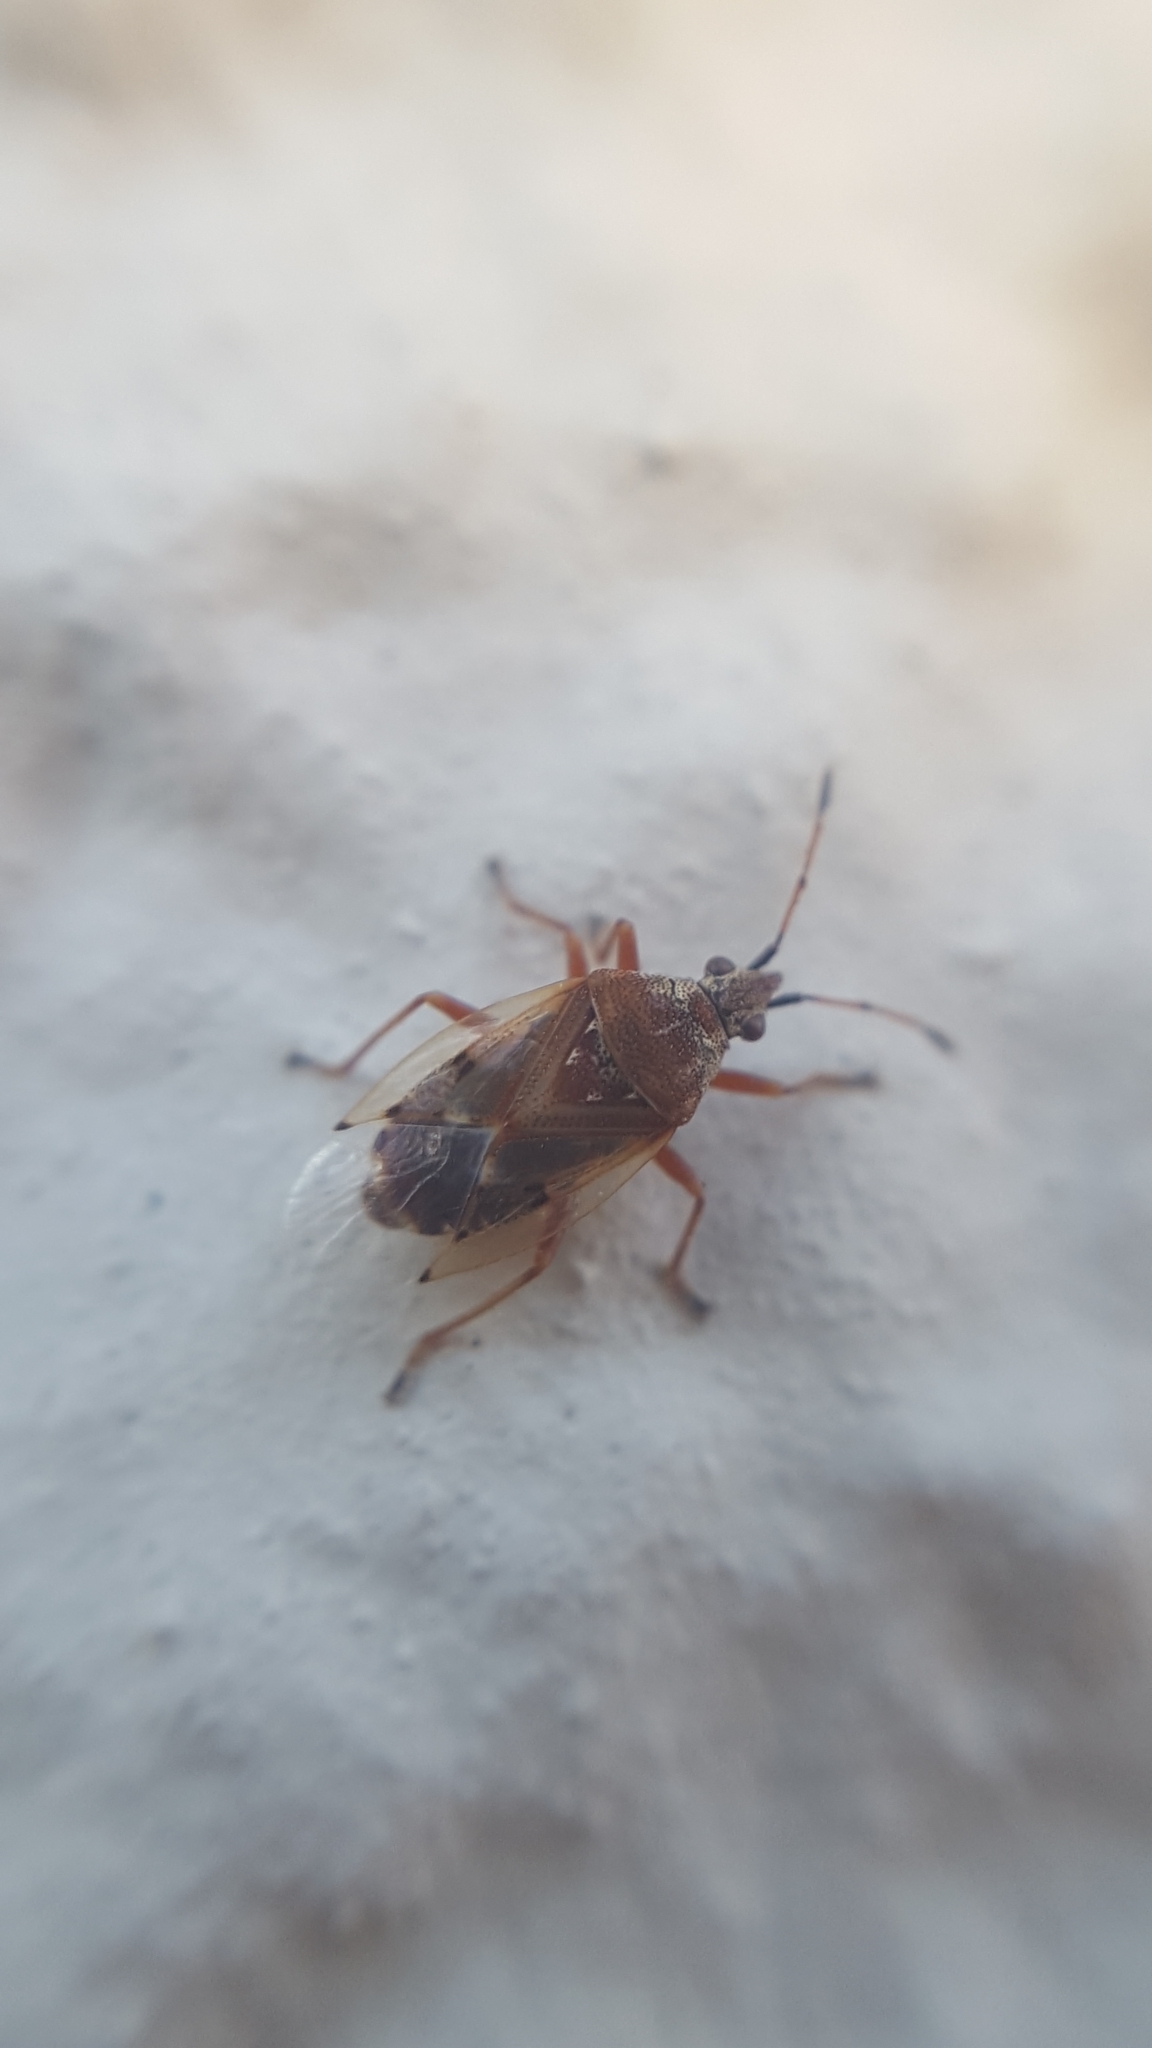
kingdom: Animalia
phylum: Arthropoda
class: Insecta
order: Hemiptera
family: Lygaeidae
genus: Kleidocerys
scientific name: Kleidocerys resedae
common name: Birch catkin bug
